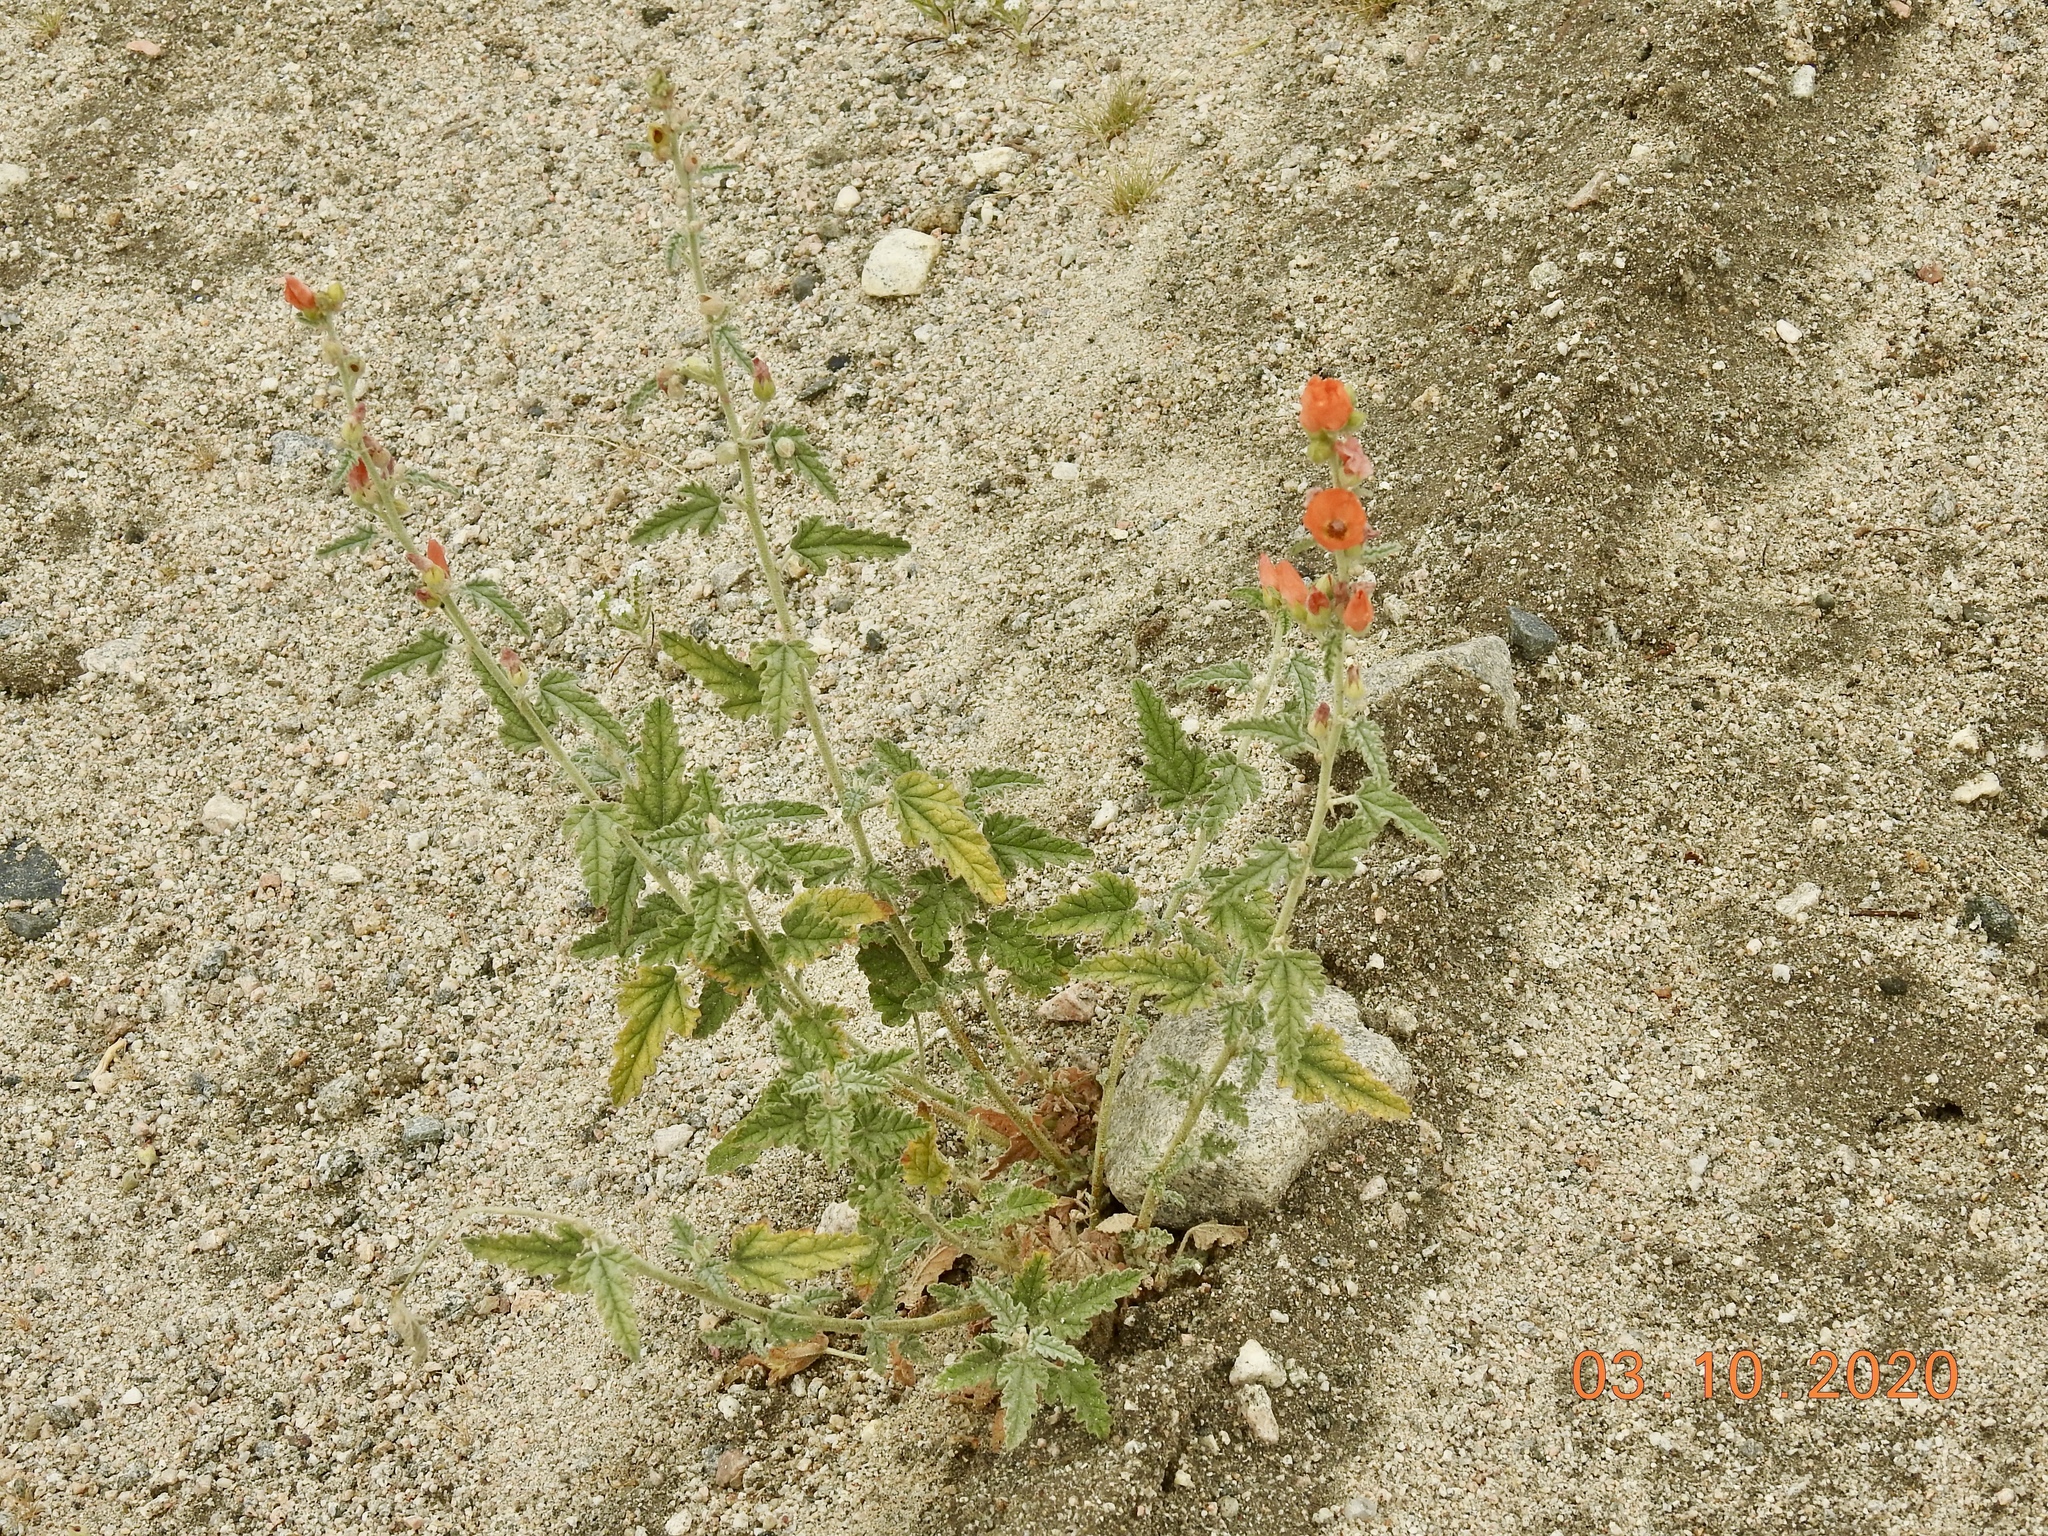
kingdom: Plantae
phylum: Tracheophyta
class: Magnoliopsida
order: Malvales
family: Malvaceae
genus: Sphaeralcea
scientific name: Sphaeralcea ambigua
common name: Apricot globe-mallow
